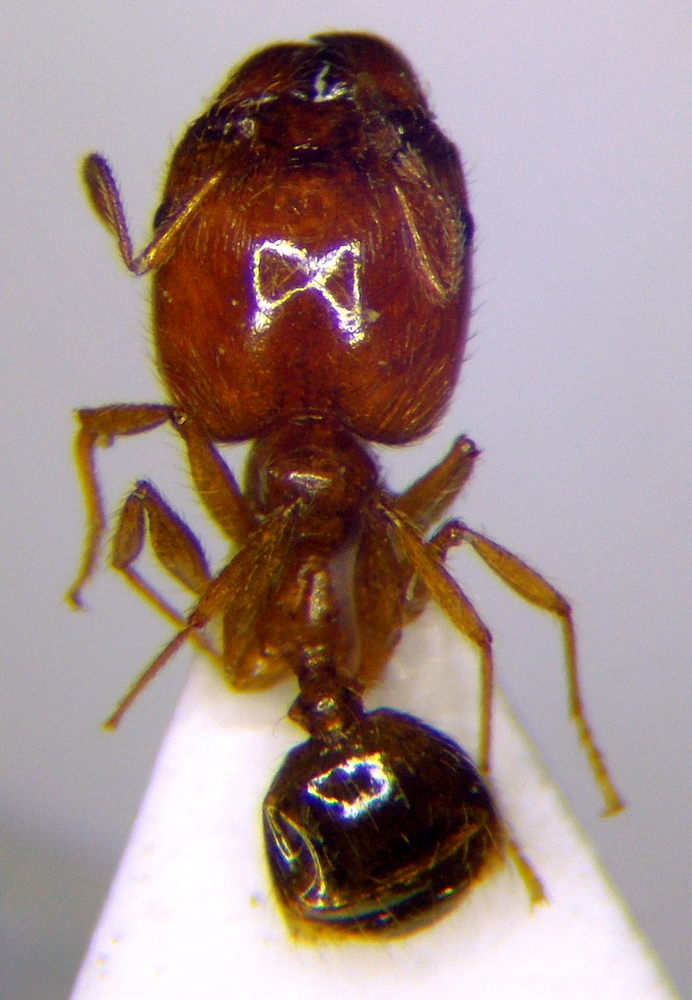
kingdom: Animalia
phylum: Arthropoda
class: Insecta
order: Hymenoptera
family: Formicidae
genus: Pheidole
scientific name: Pheidole pallidula
